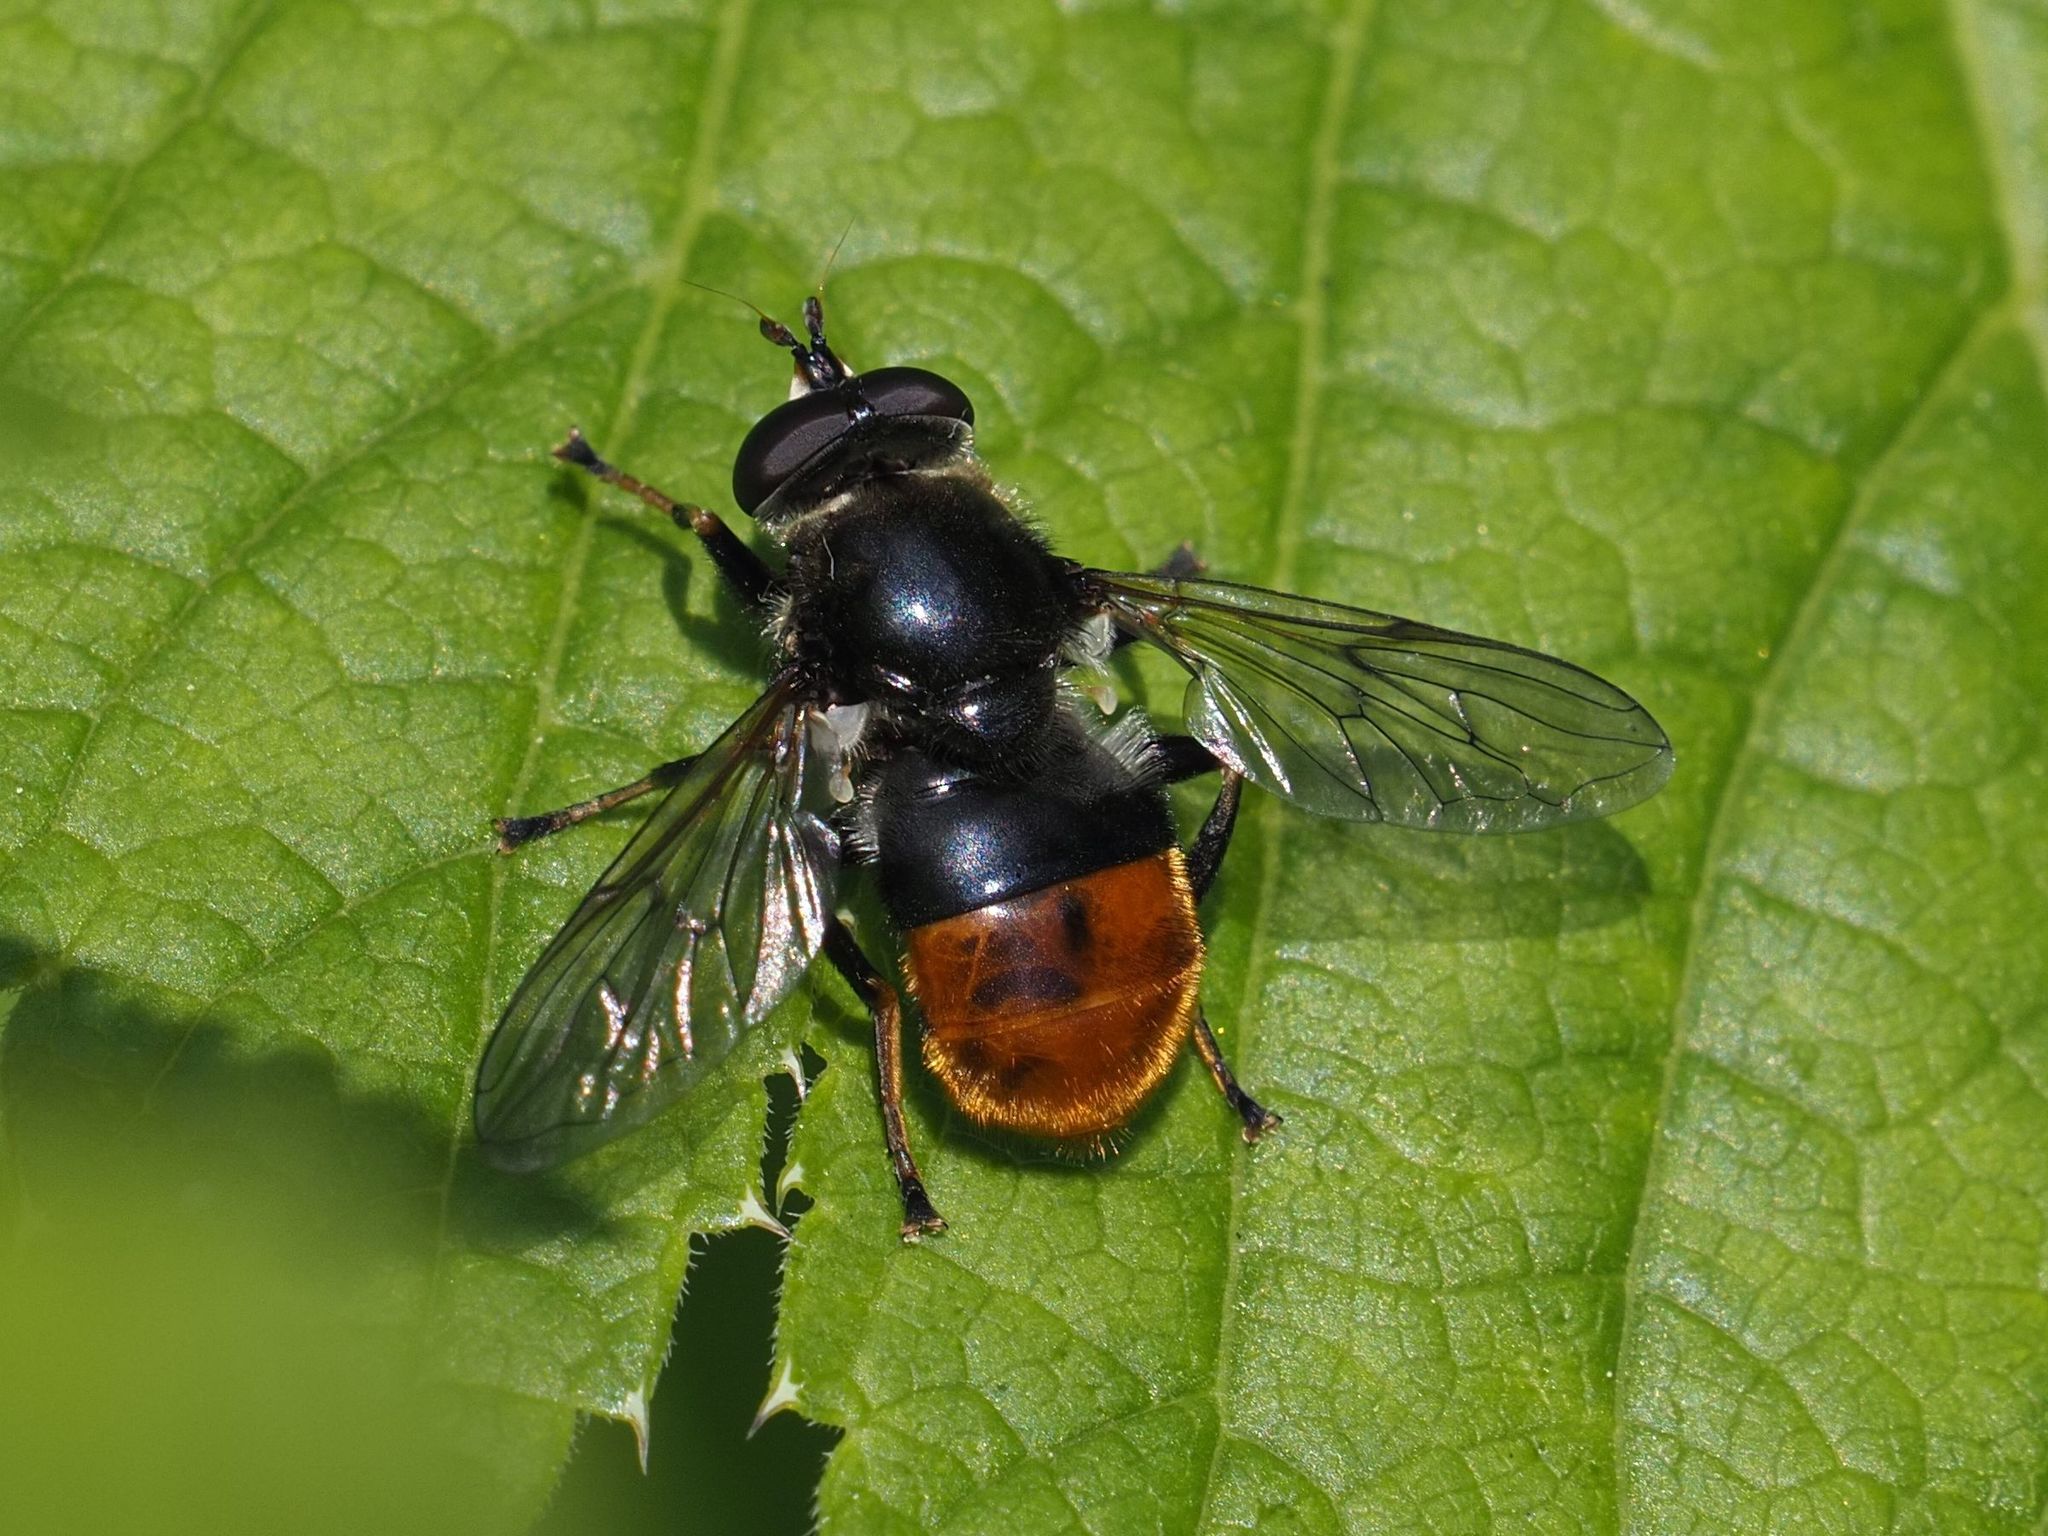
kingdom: Animalia
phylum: Arthropoda
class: Insecta
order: Diptera
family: Syrphidae
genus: Blera
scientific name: Blera fallax
